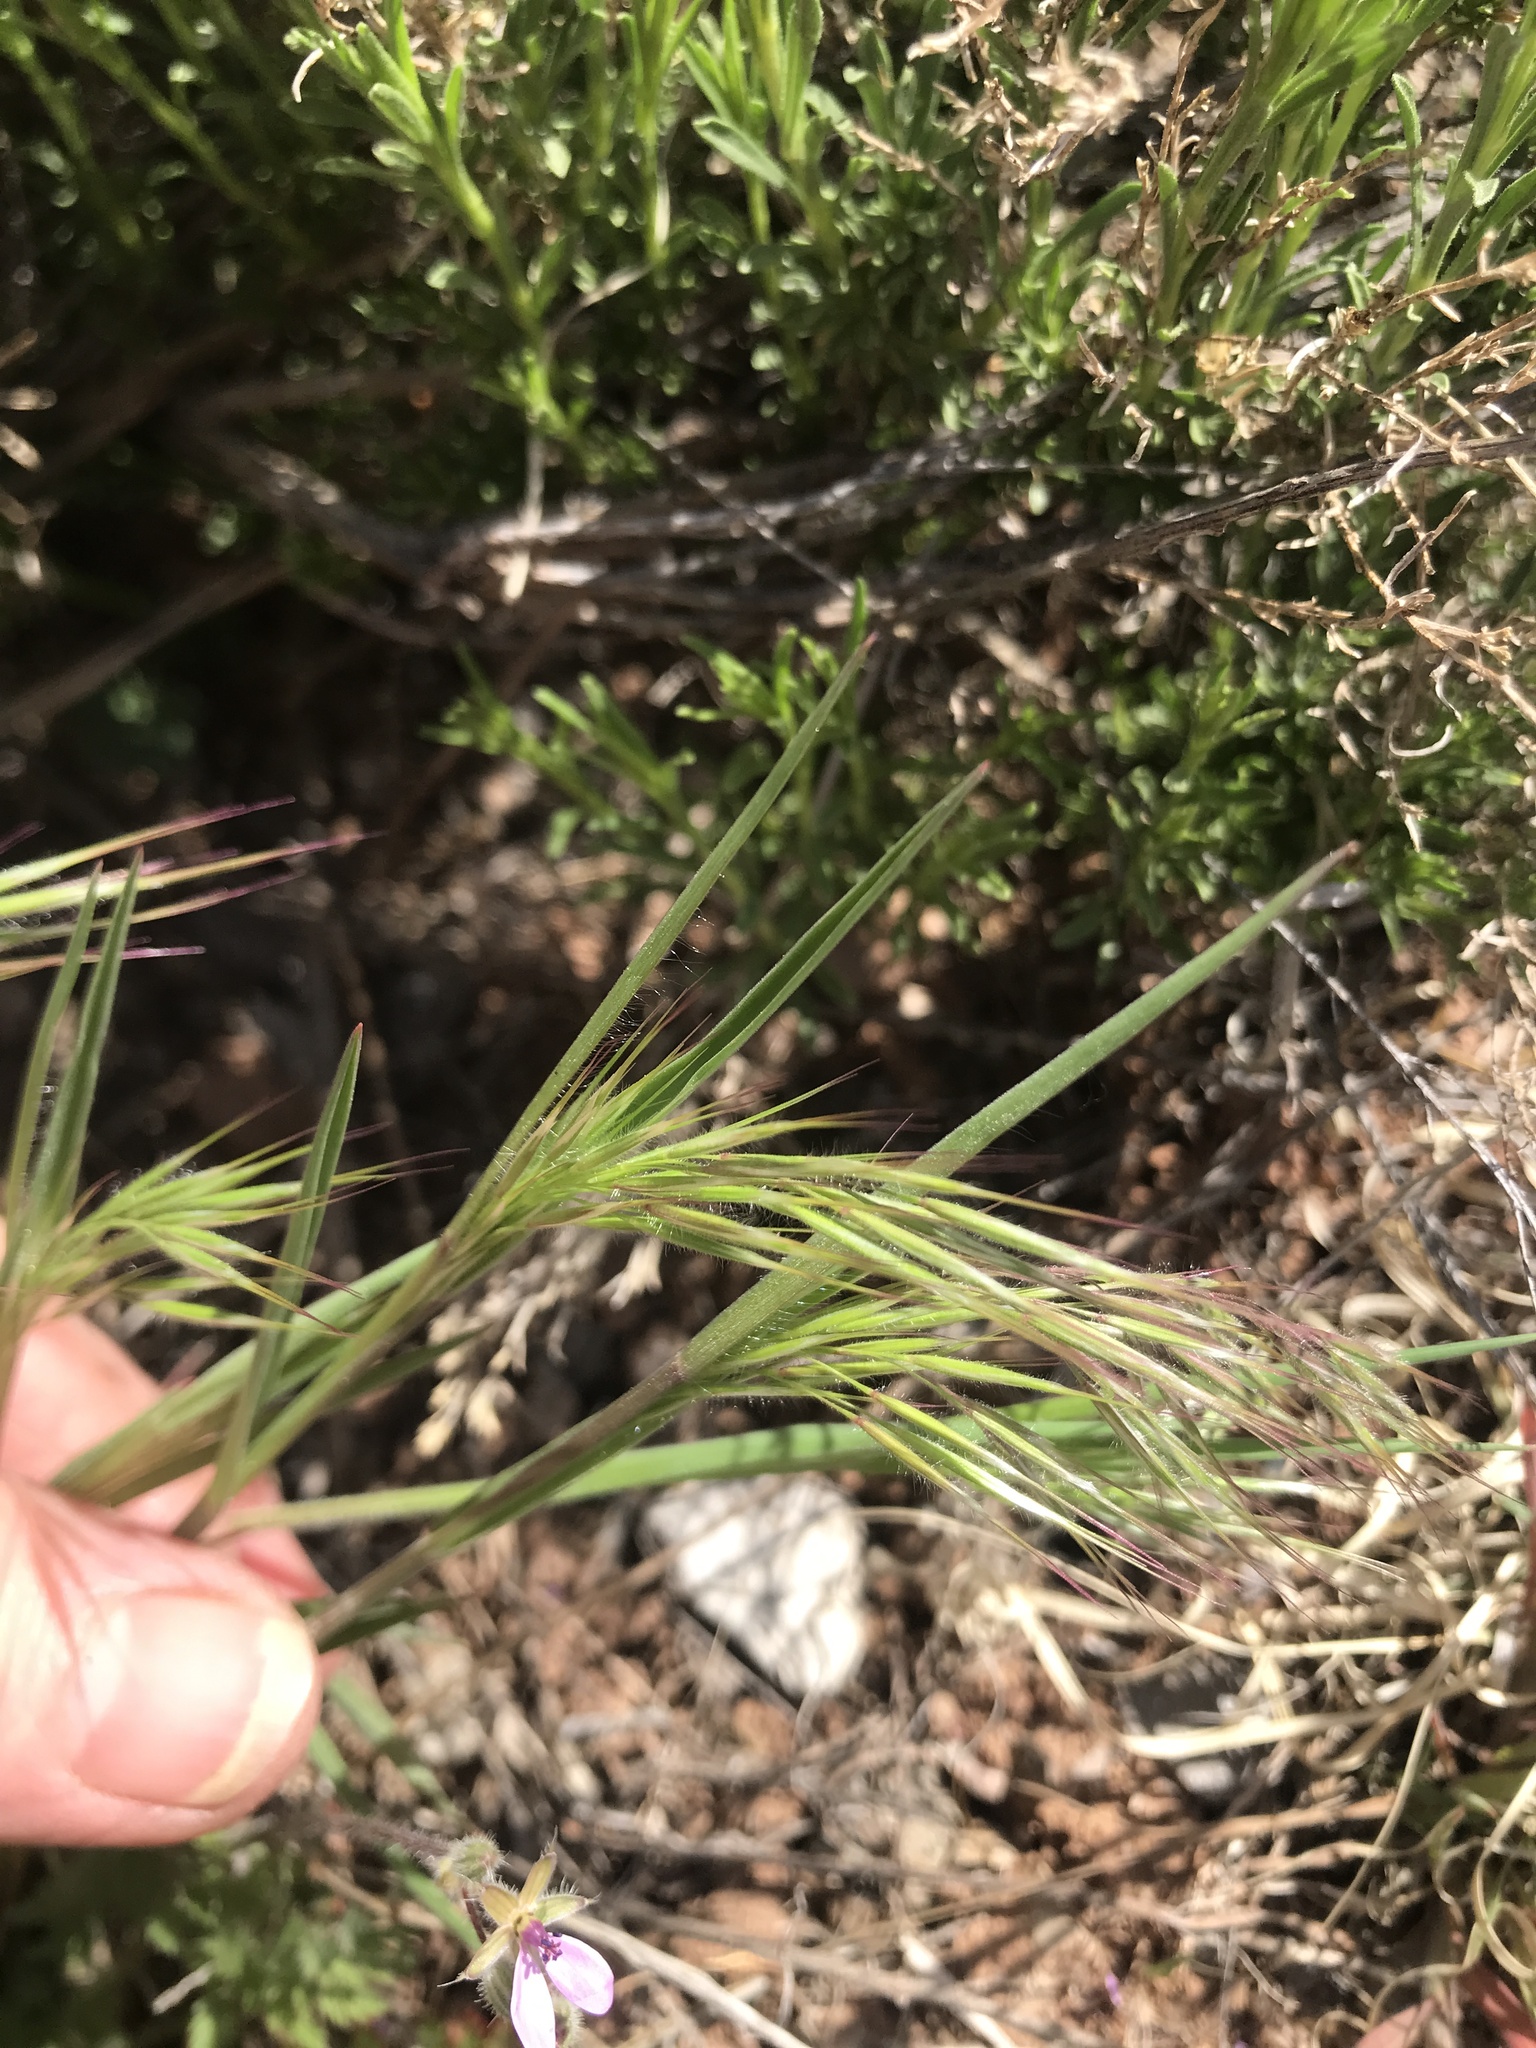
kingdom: Plantae
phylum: Tracheophyta
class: Liliopsida
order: Poales
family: Poaceae
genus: Bromus
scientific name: Bromus tectorum
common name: Cheatgrass
